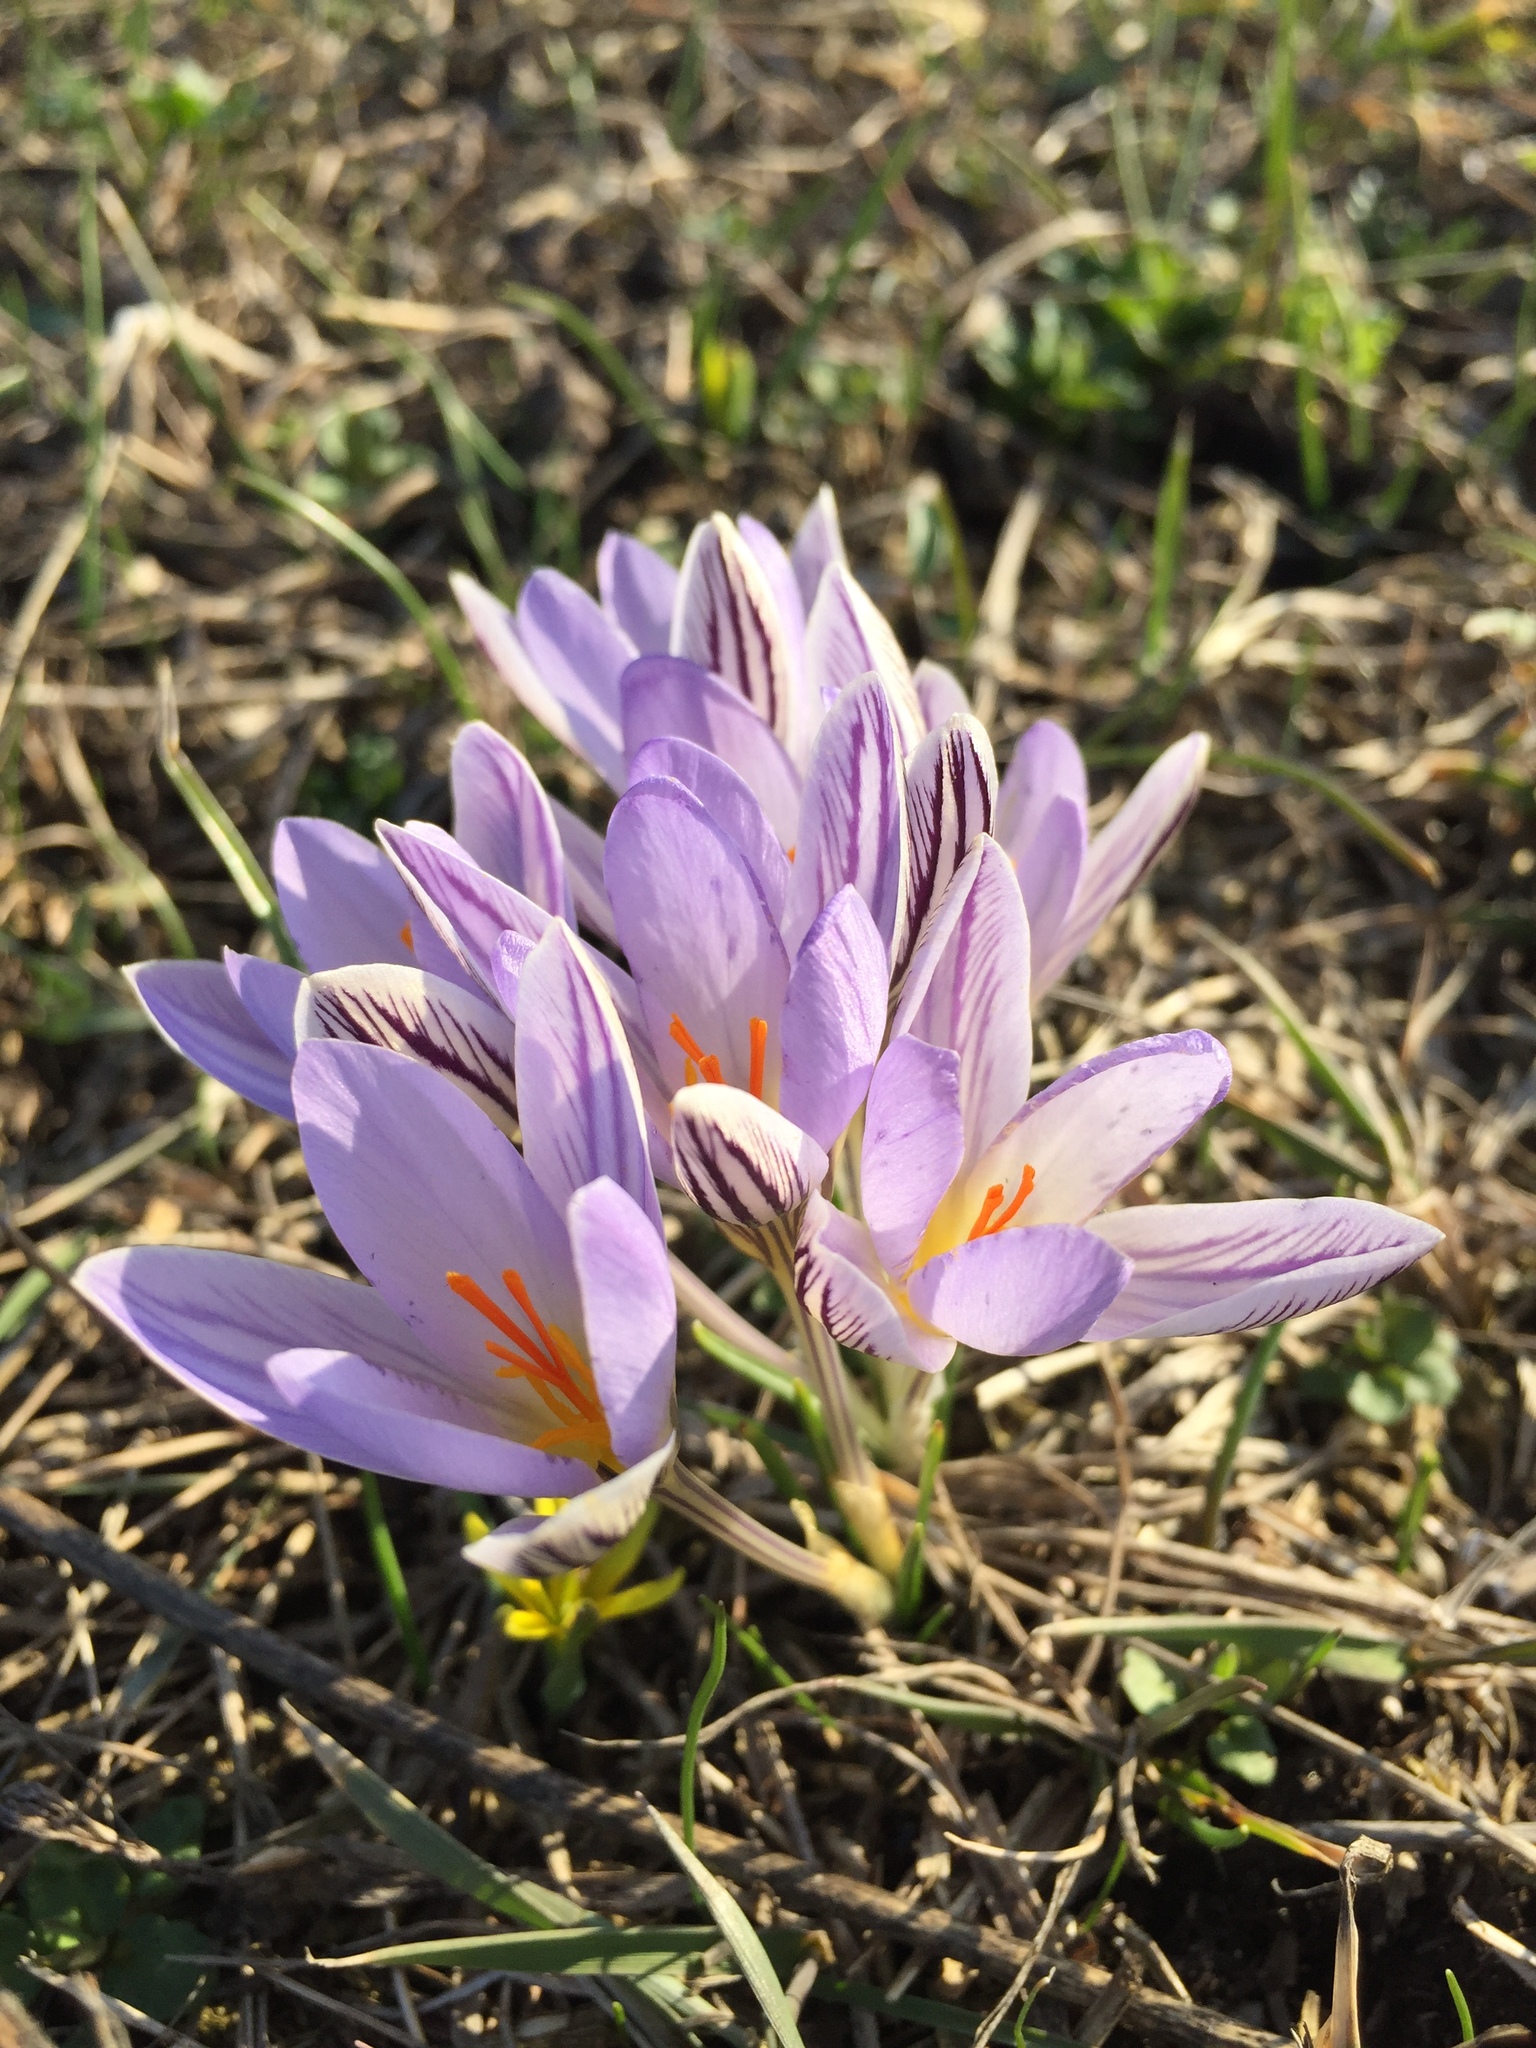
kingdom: Plantae
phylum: Tracheophyta
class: Liliopsida
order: Asparagales
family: Iridaceae
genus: Crocus
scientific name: Crocus reticulatus
